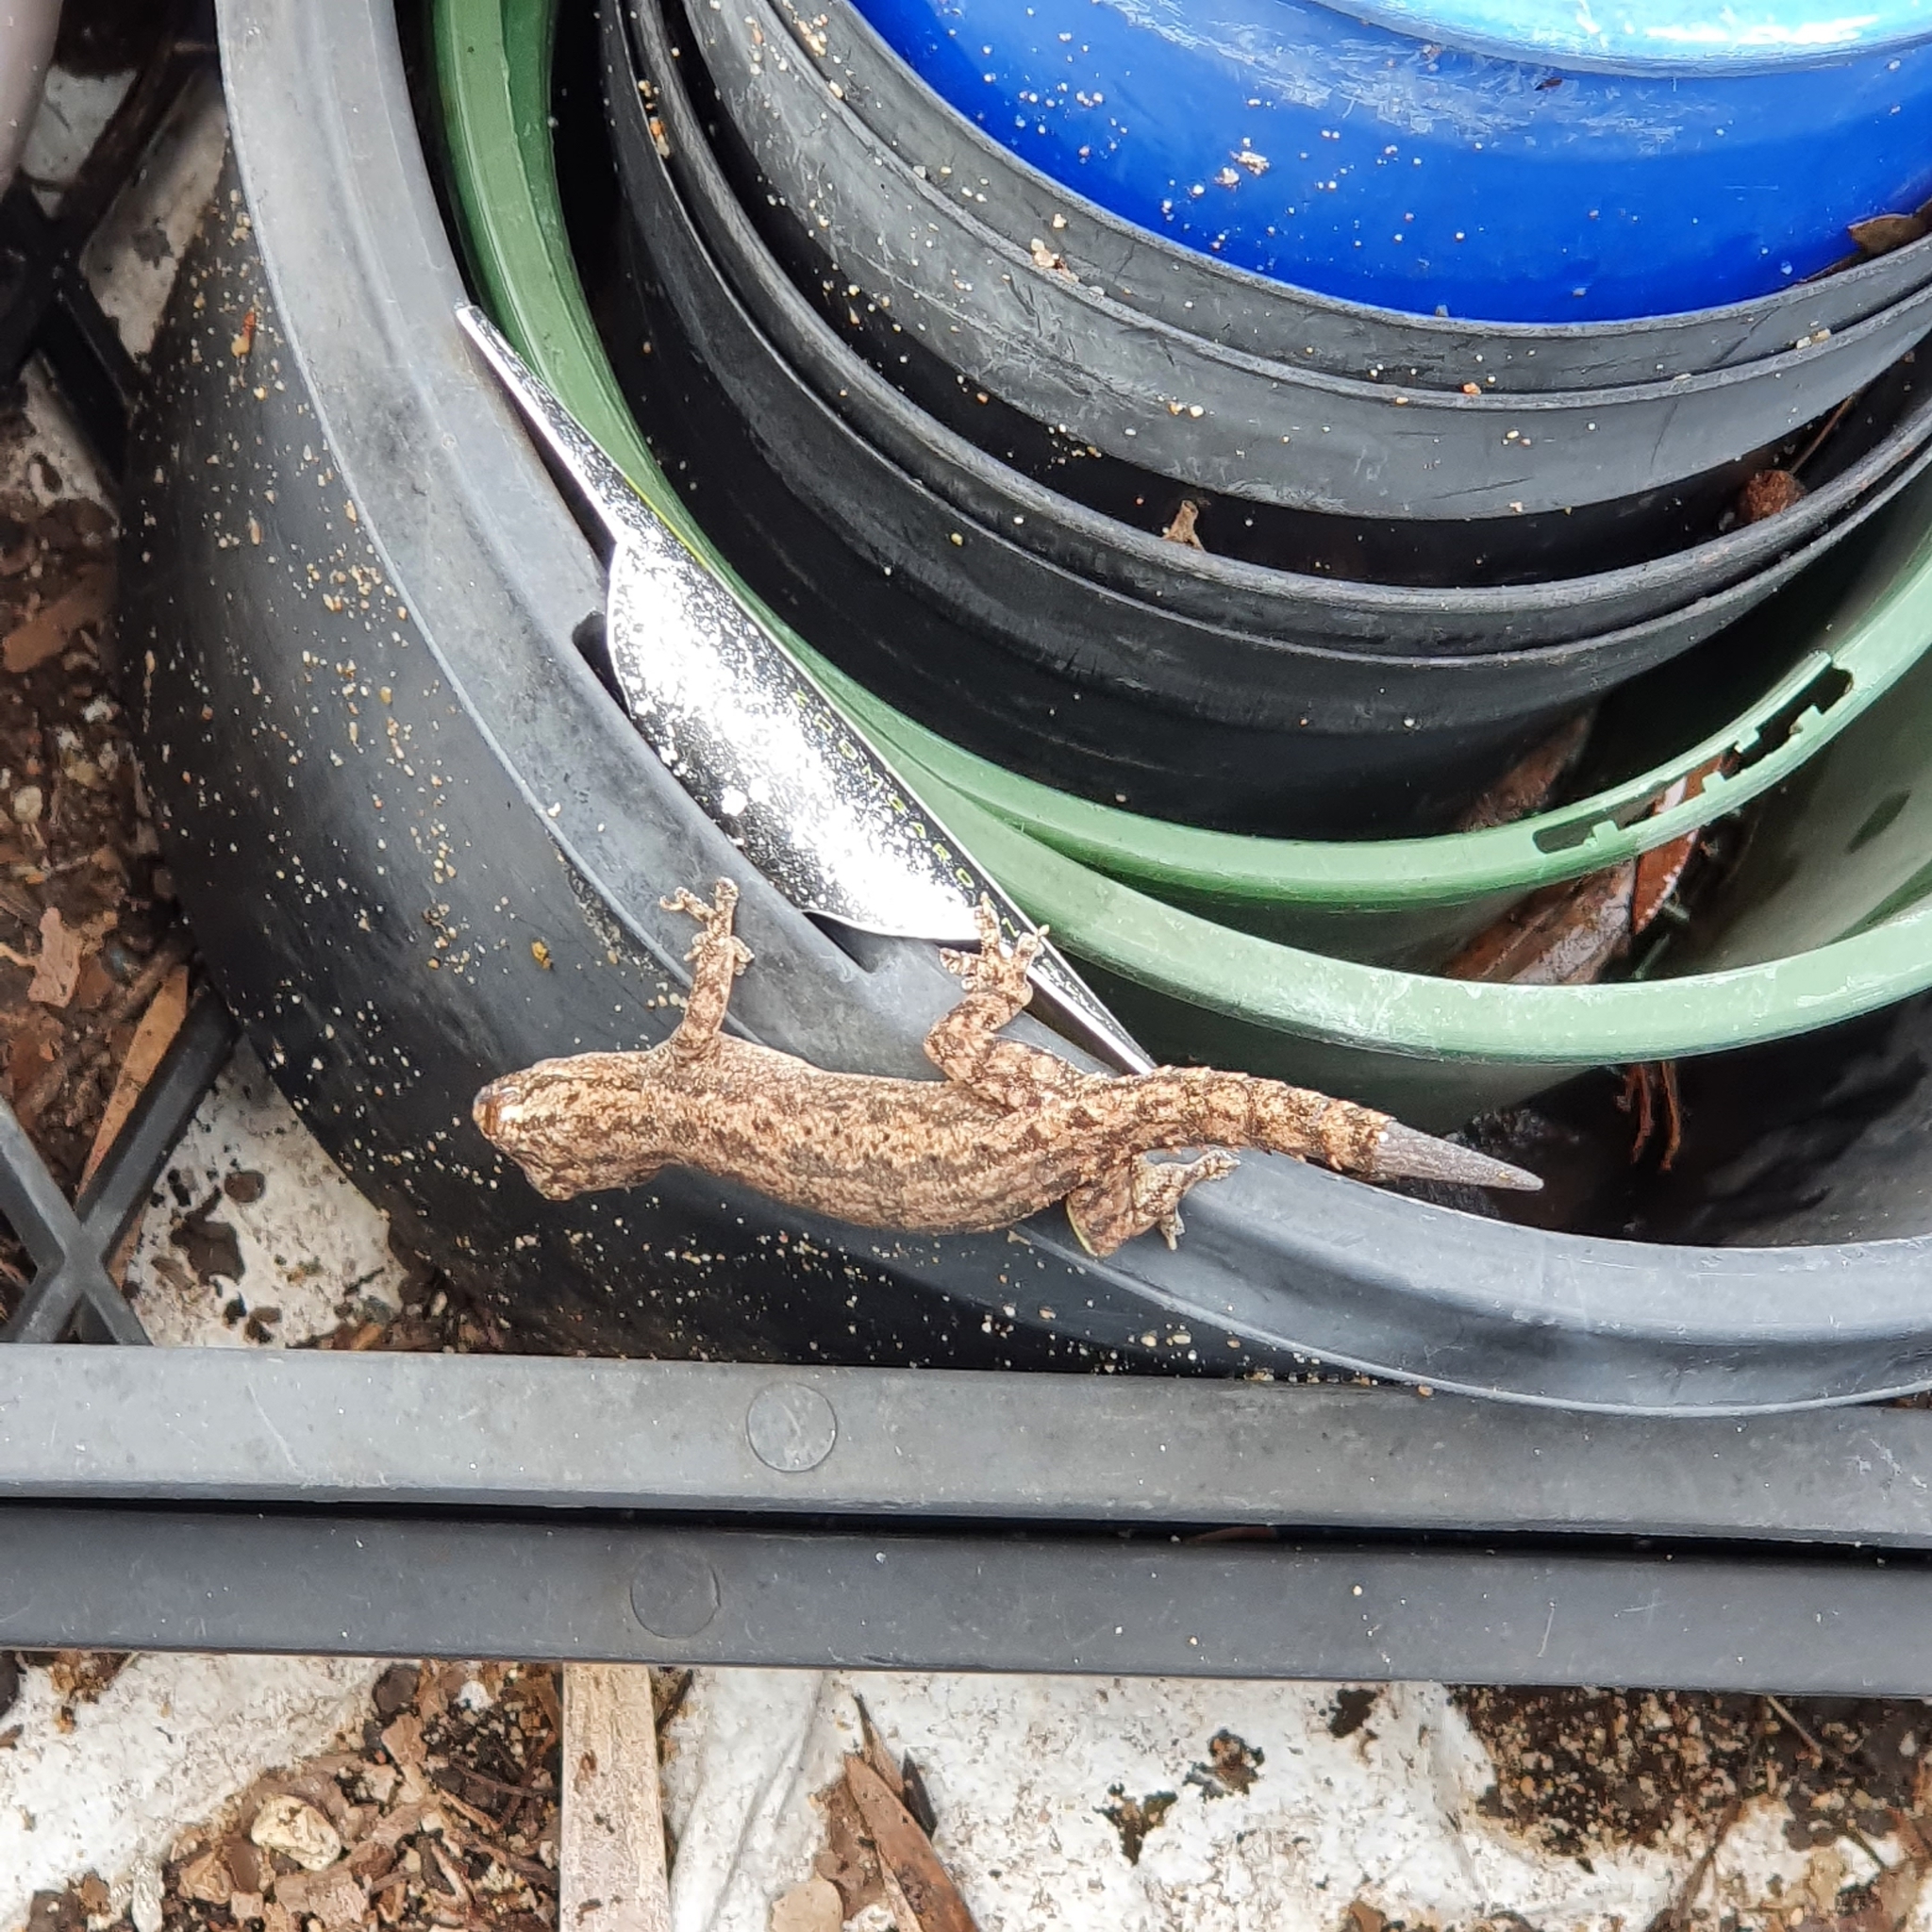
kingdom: Animalia
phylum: Chordata
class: Squamata
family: Gekkonidae
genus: Hemidactylus
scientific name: Hemidactylus frenatus
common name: Common house gecko
